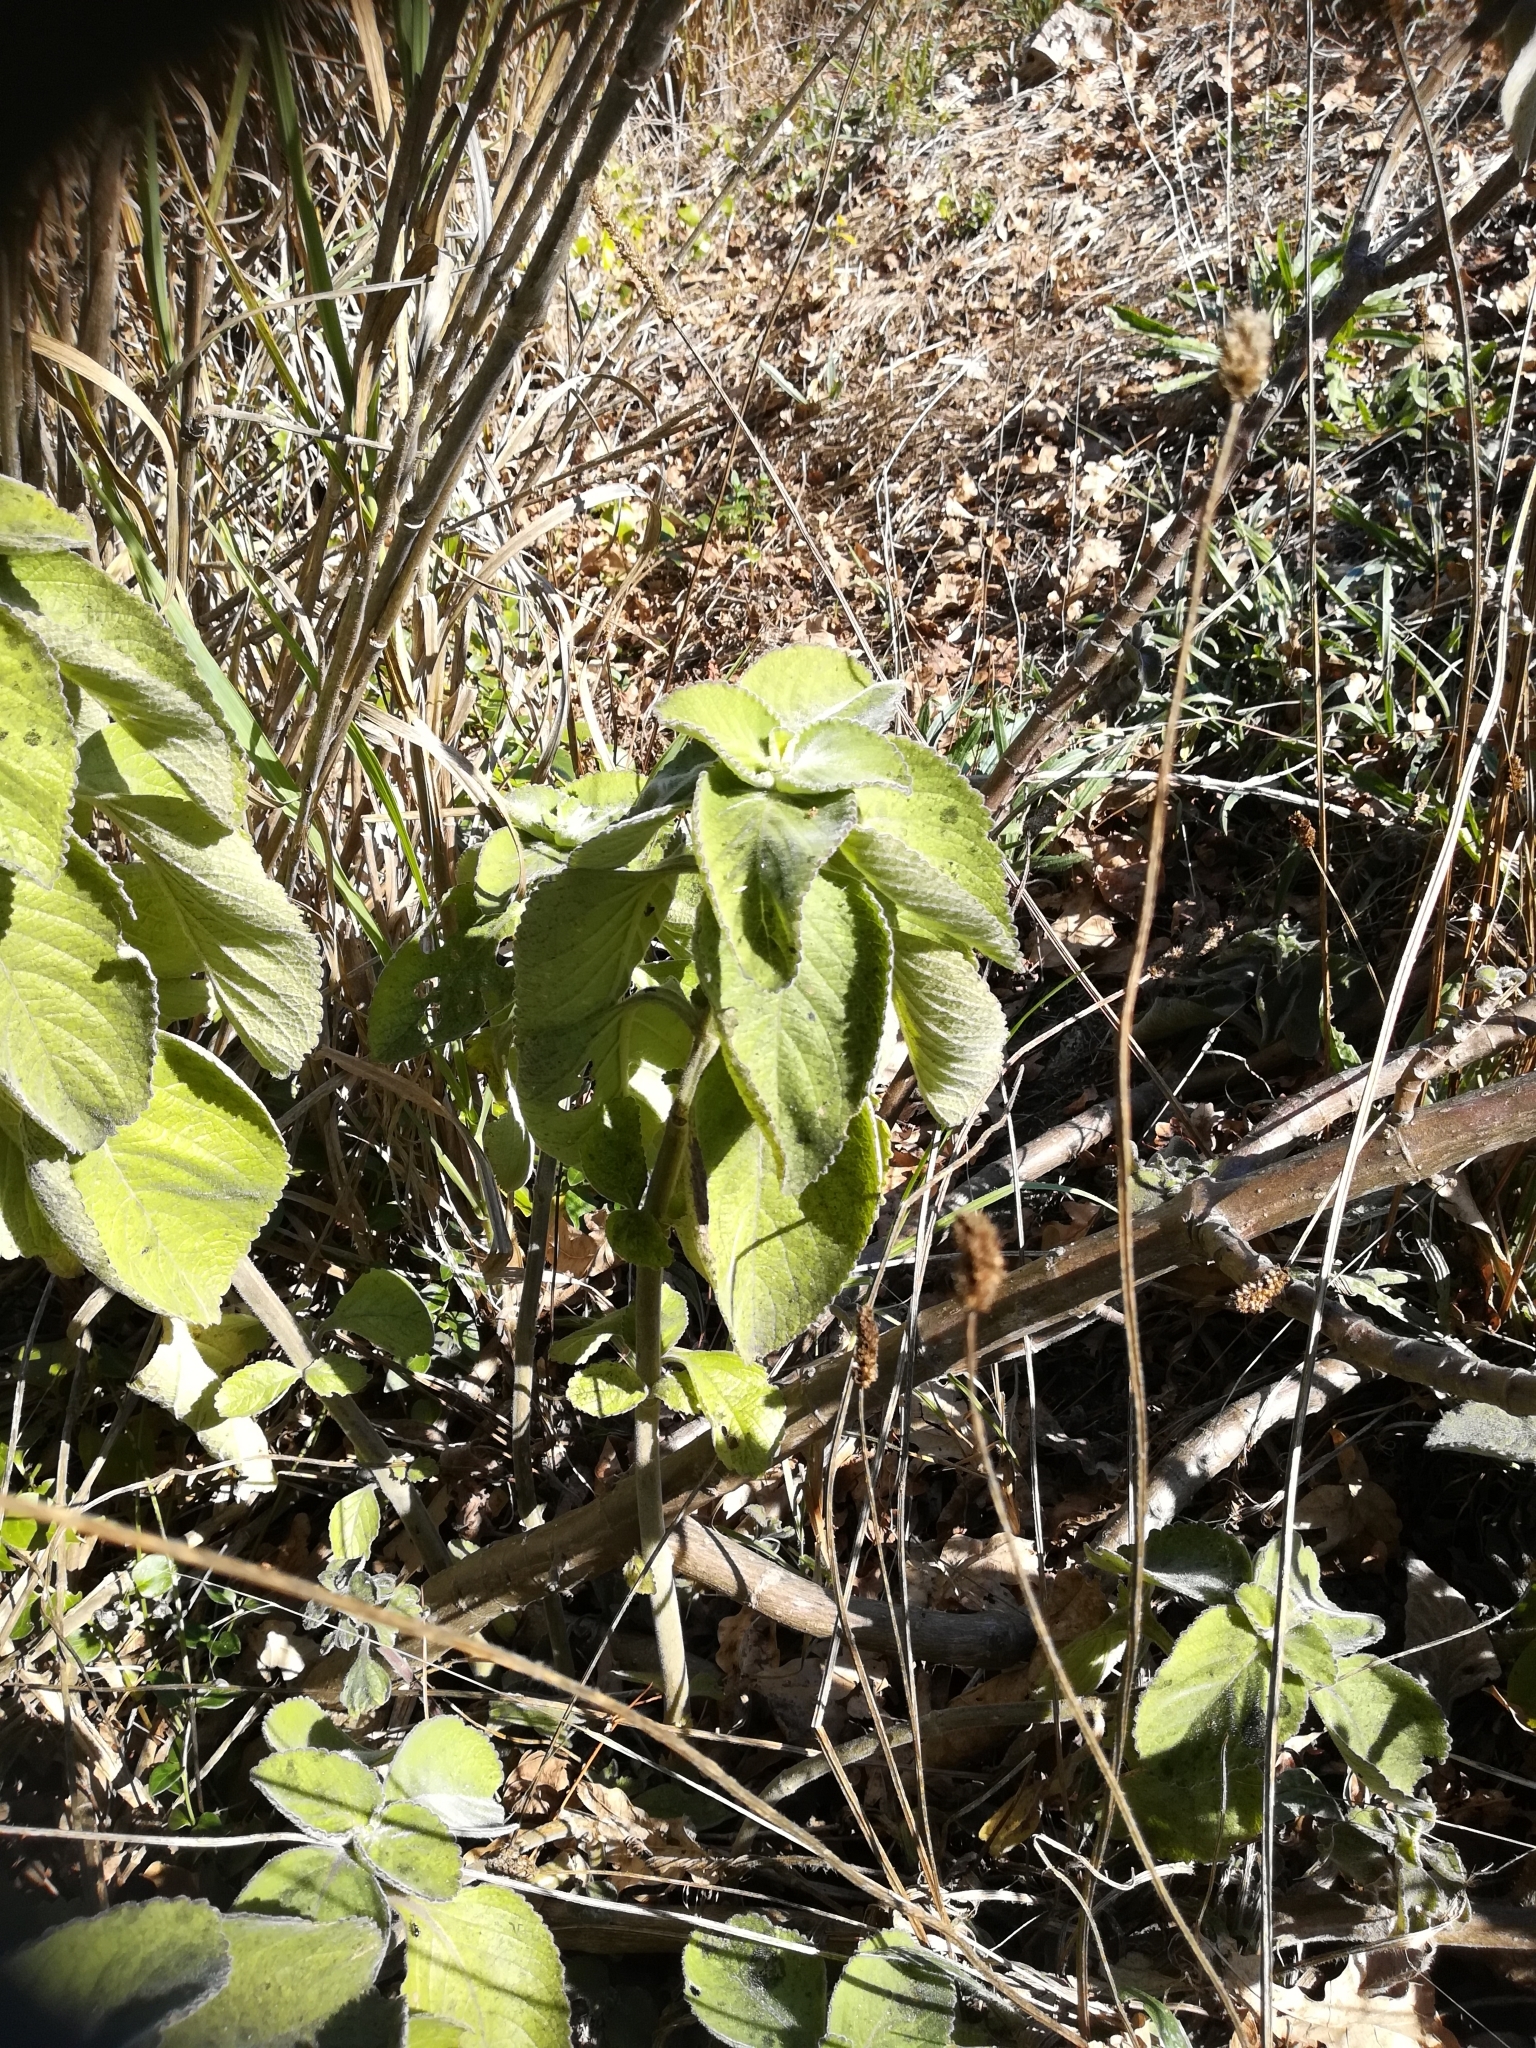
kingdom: Plantae
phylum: Tracheophyta
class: Magnoliopsida
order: Lamiales
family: Lamiaceae
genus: Coleus
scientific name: Coleus barbatus
